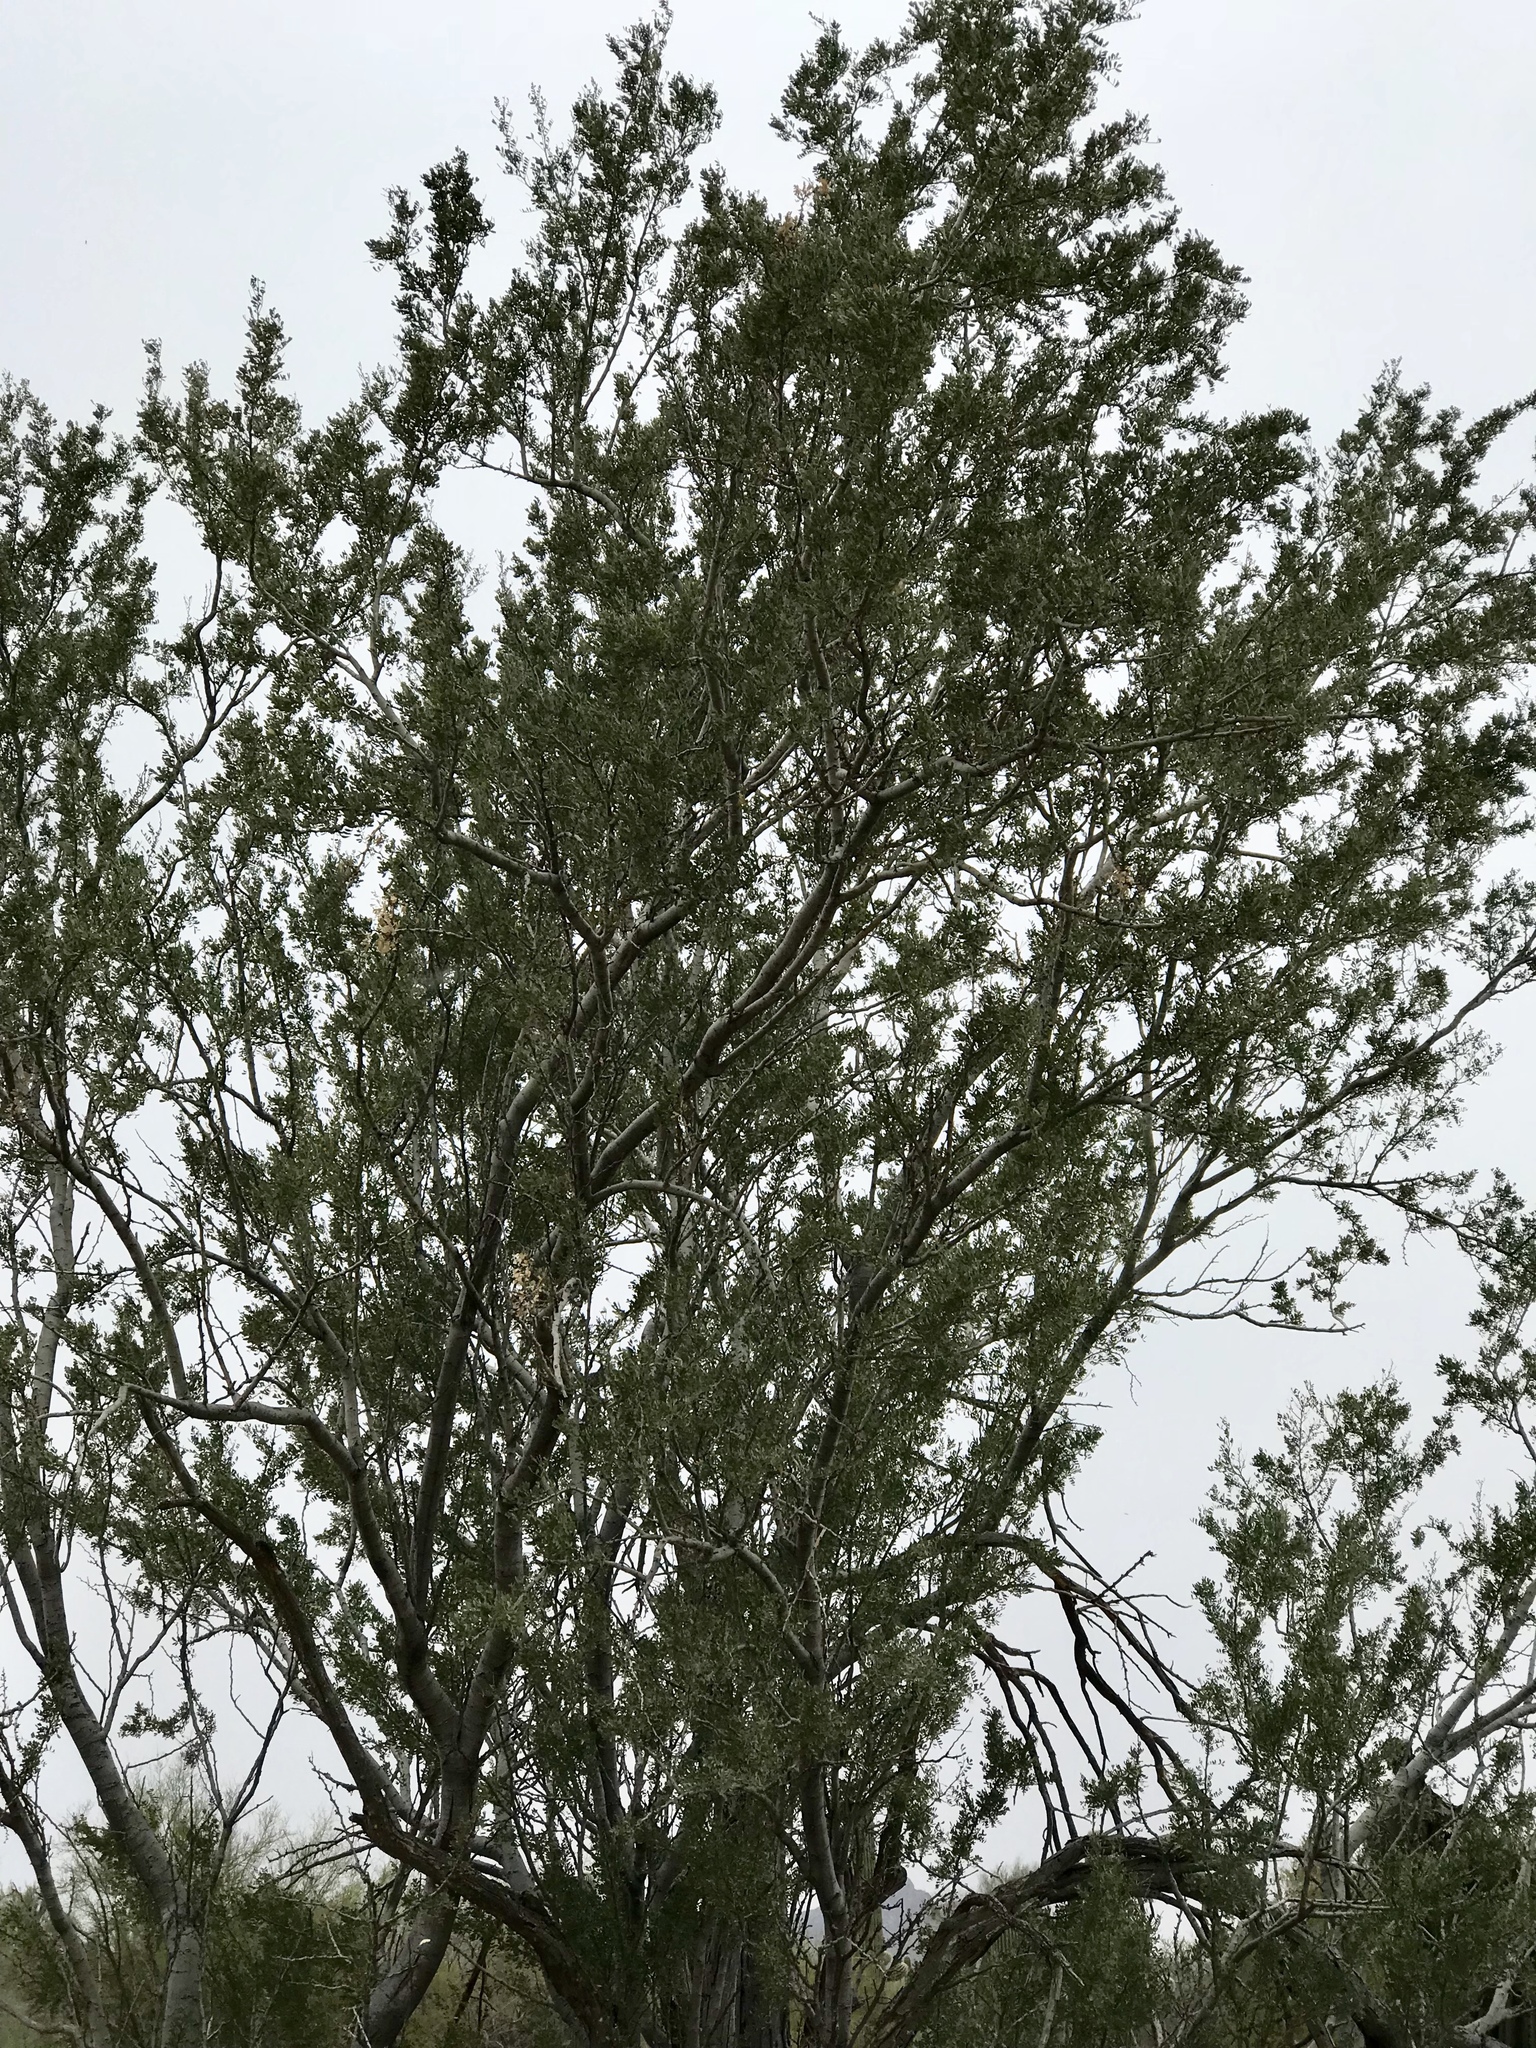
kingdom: Plantae
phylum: Tracheophyta
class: Magnoliopsida
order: Fabales
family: Fabaceae
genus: Olneya
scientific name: Olneya tesota
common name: Desert ironwood
